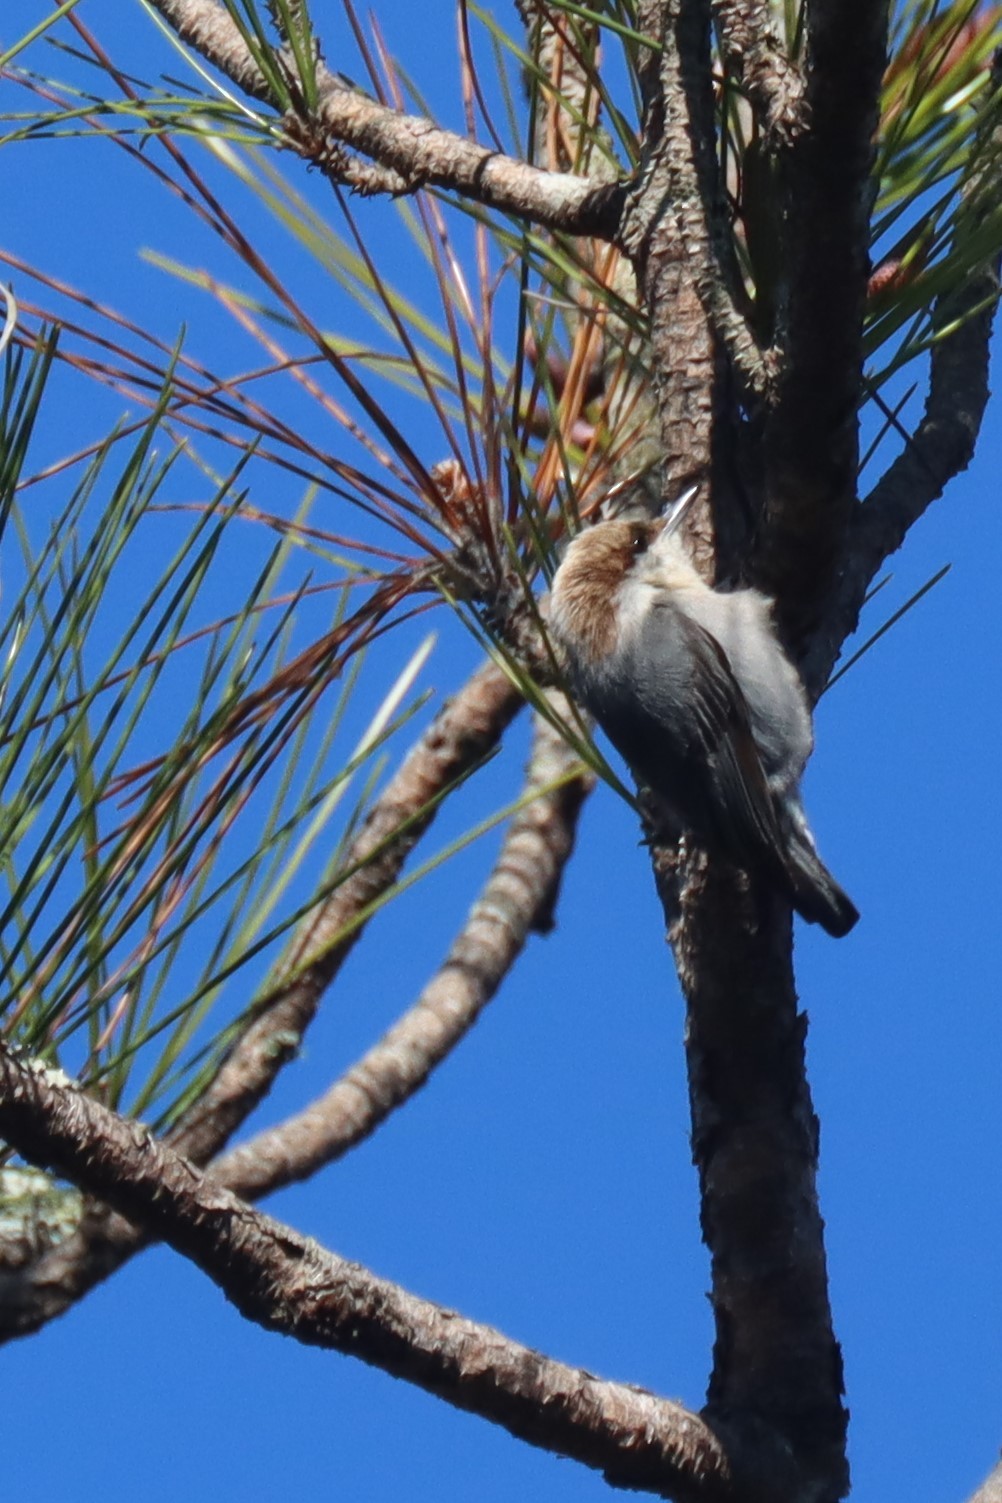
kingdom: Animalia
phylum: Chordata
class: Aves
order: Passeriformes
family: Sittidae
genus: Sitta
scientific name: Sitta pusilla
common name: Brown-headed nuthatch
